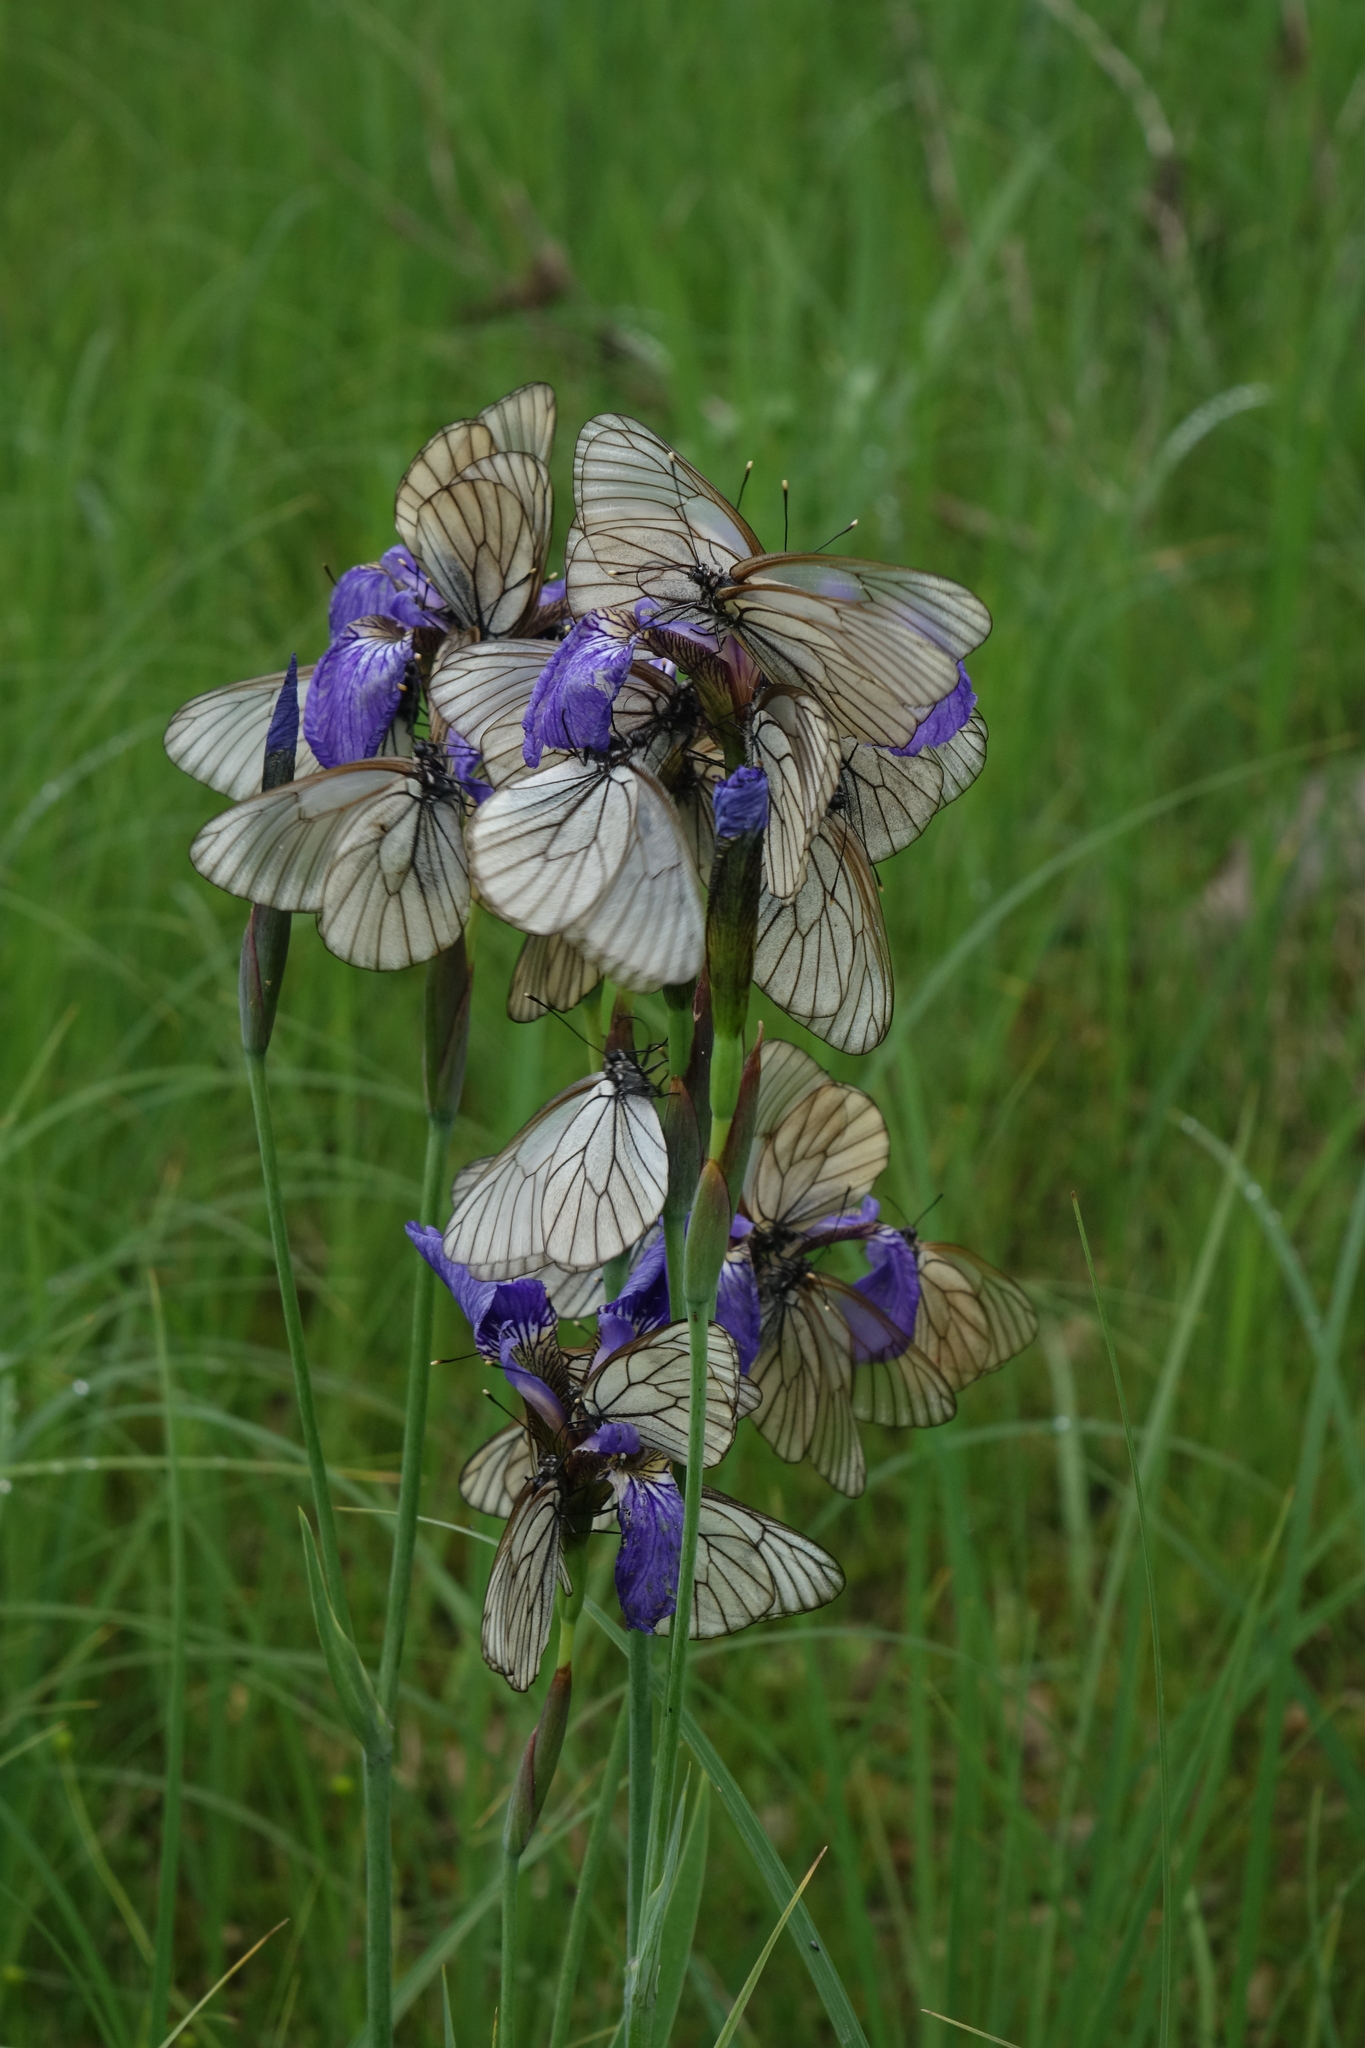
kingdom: Animalia
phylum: Arthropoda
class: Insecta
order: Lepidoptera
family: Pieridae
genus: Aporia
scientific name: Aporia crataegi
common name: Black-veined white
